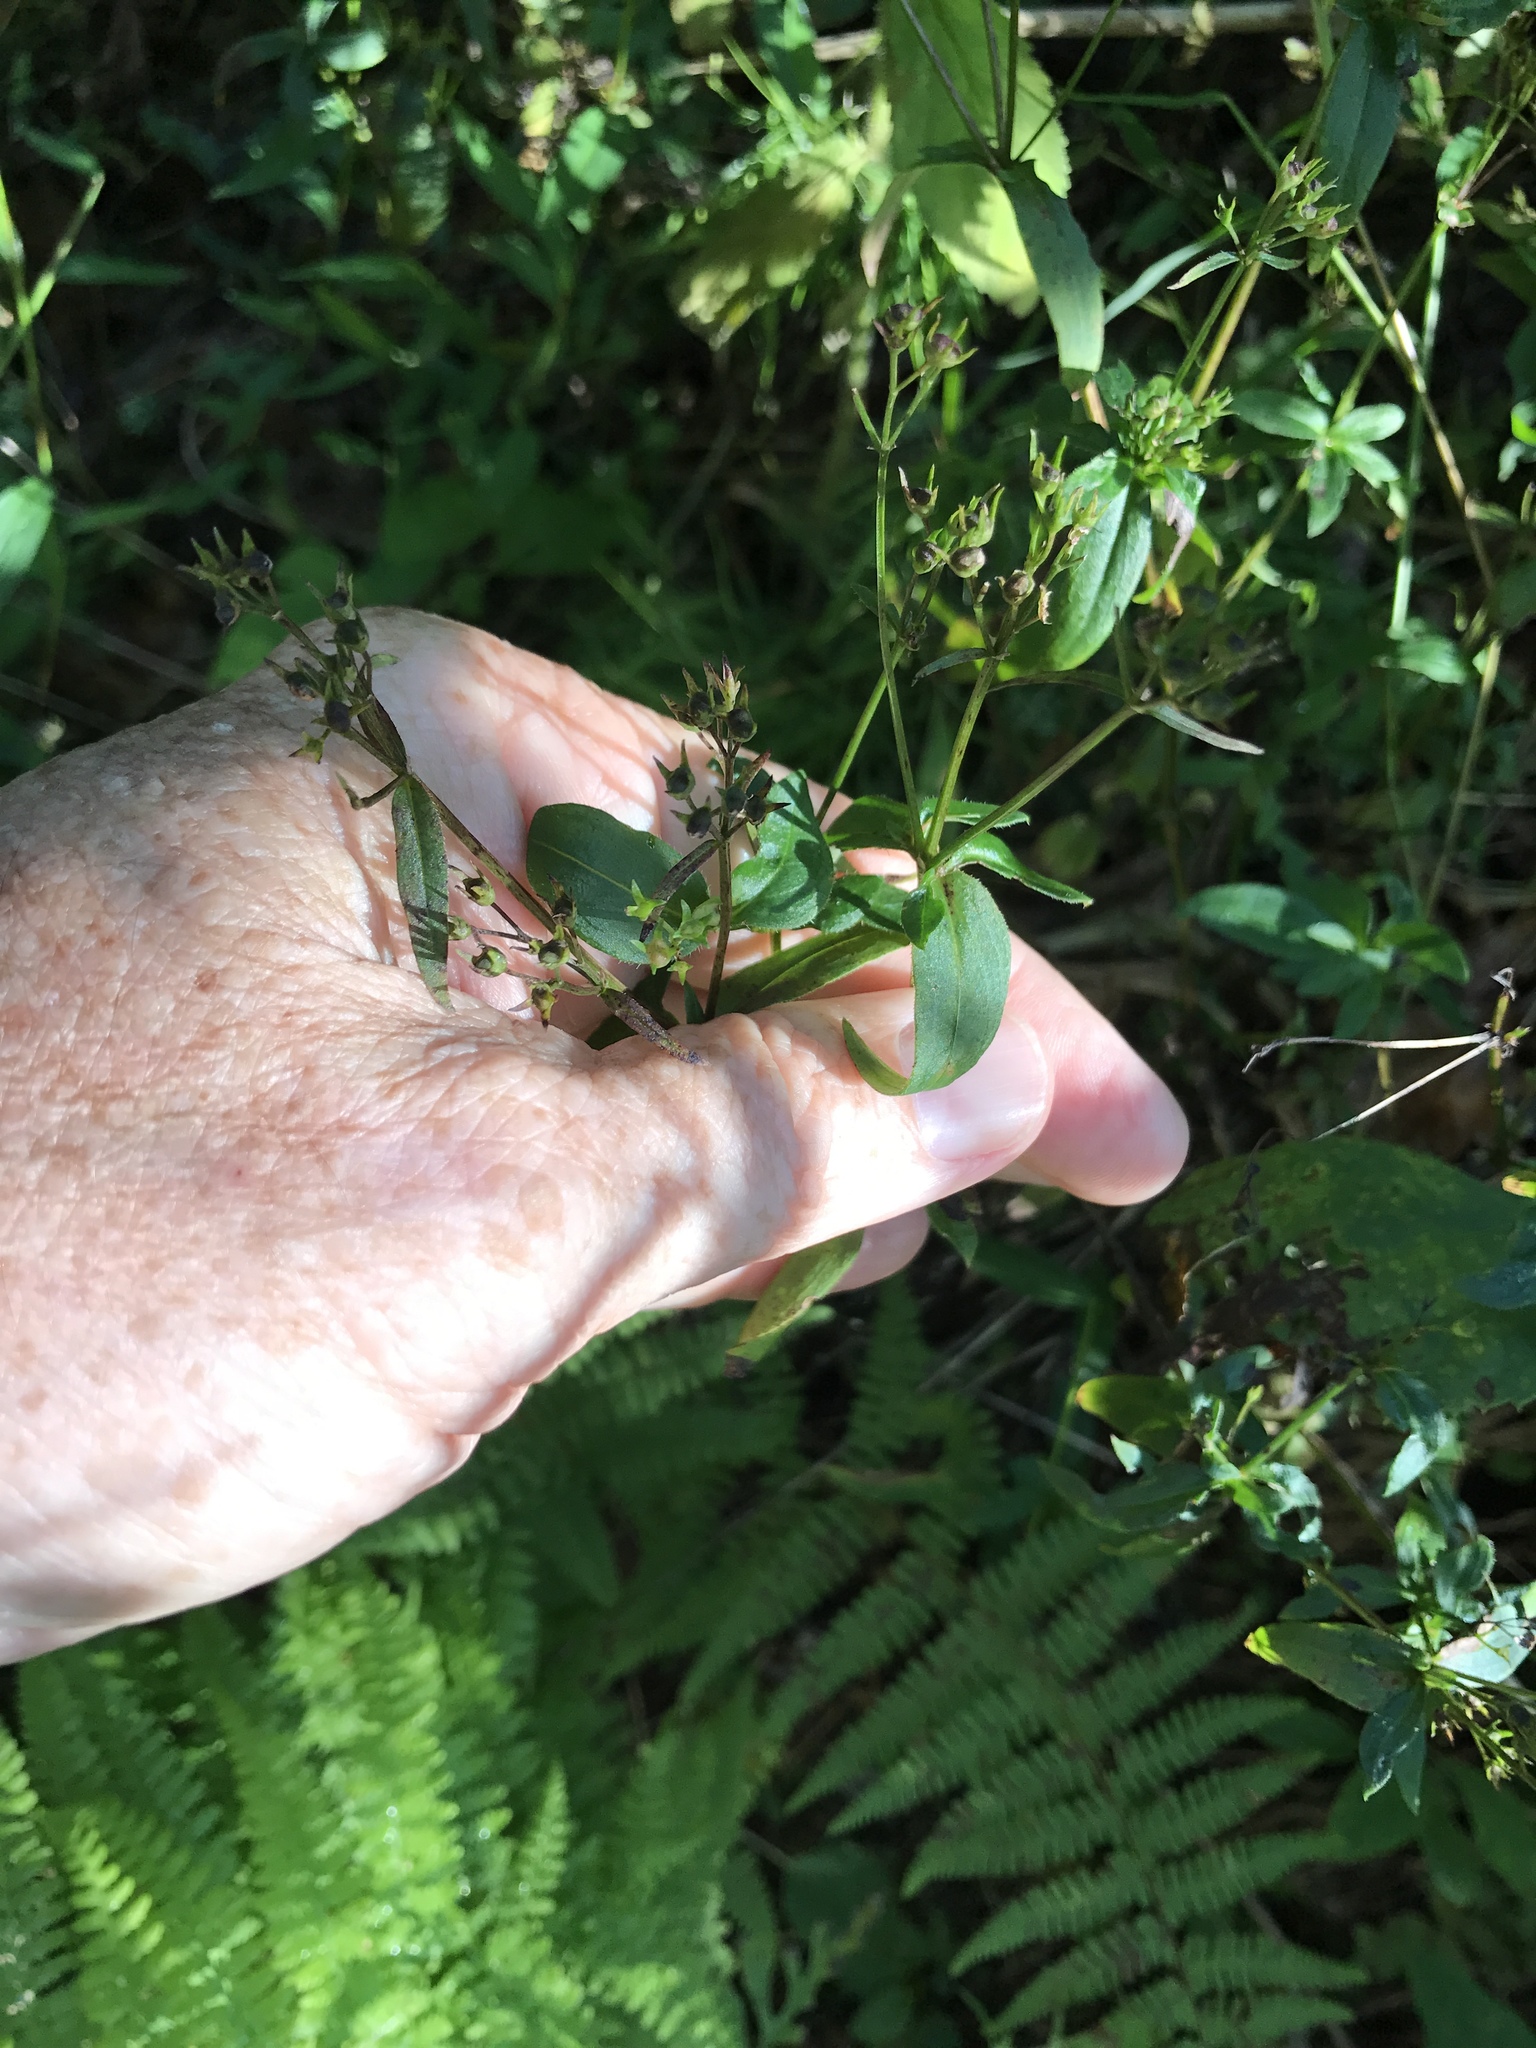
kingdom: Plantae
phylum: Tracheophyta
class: Magnoliopsida
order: Gentianales
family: Rubiaceae
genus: Houstonia
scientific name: Houstonia purpurea
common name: Summer bluet
